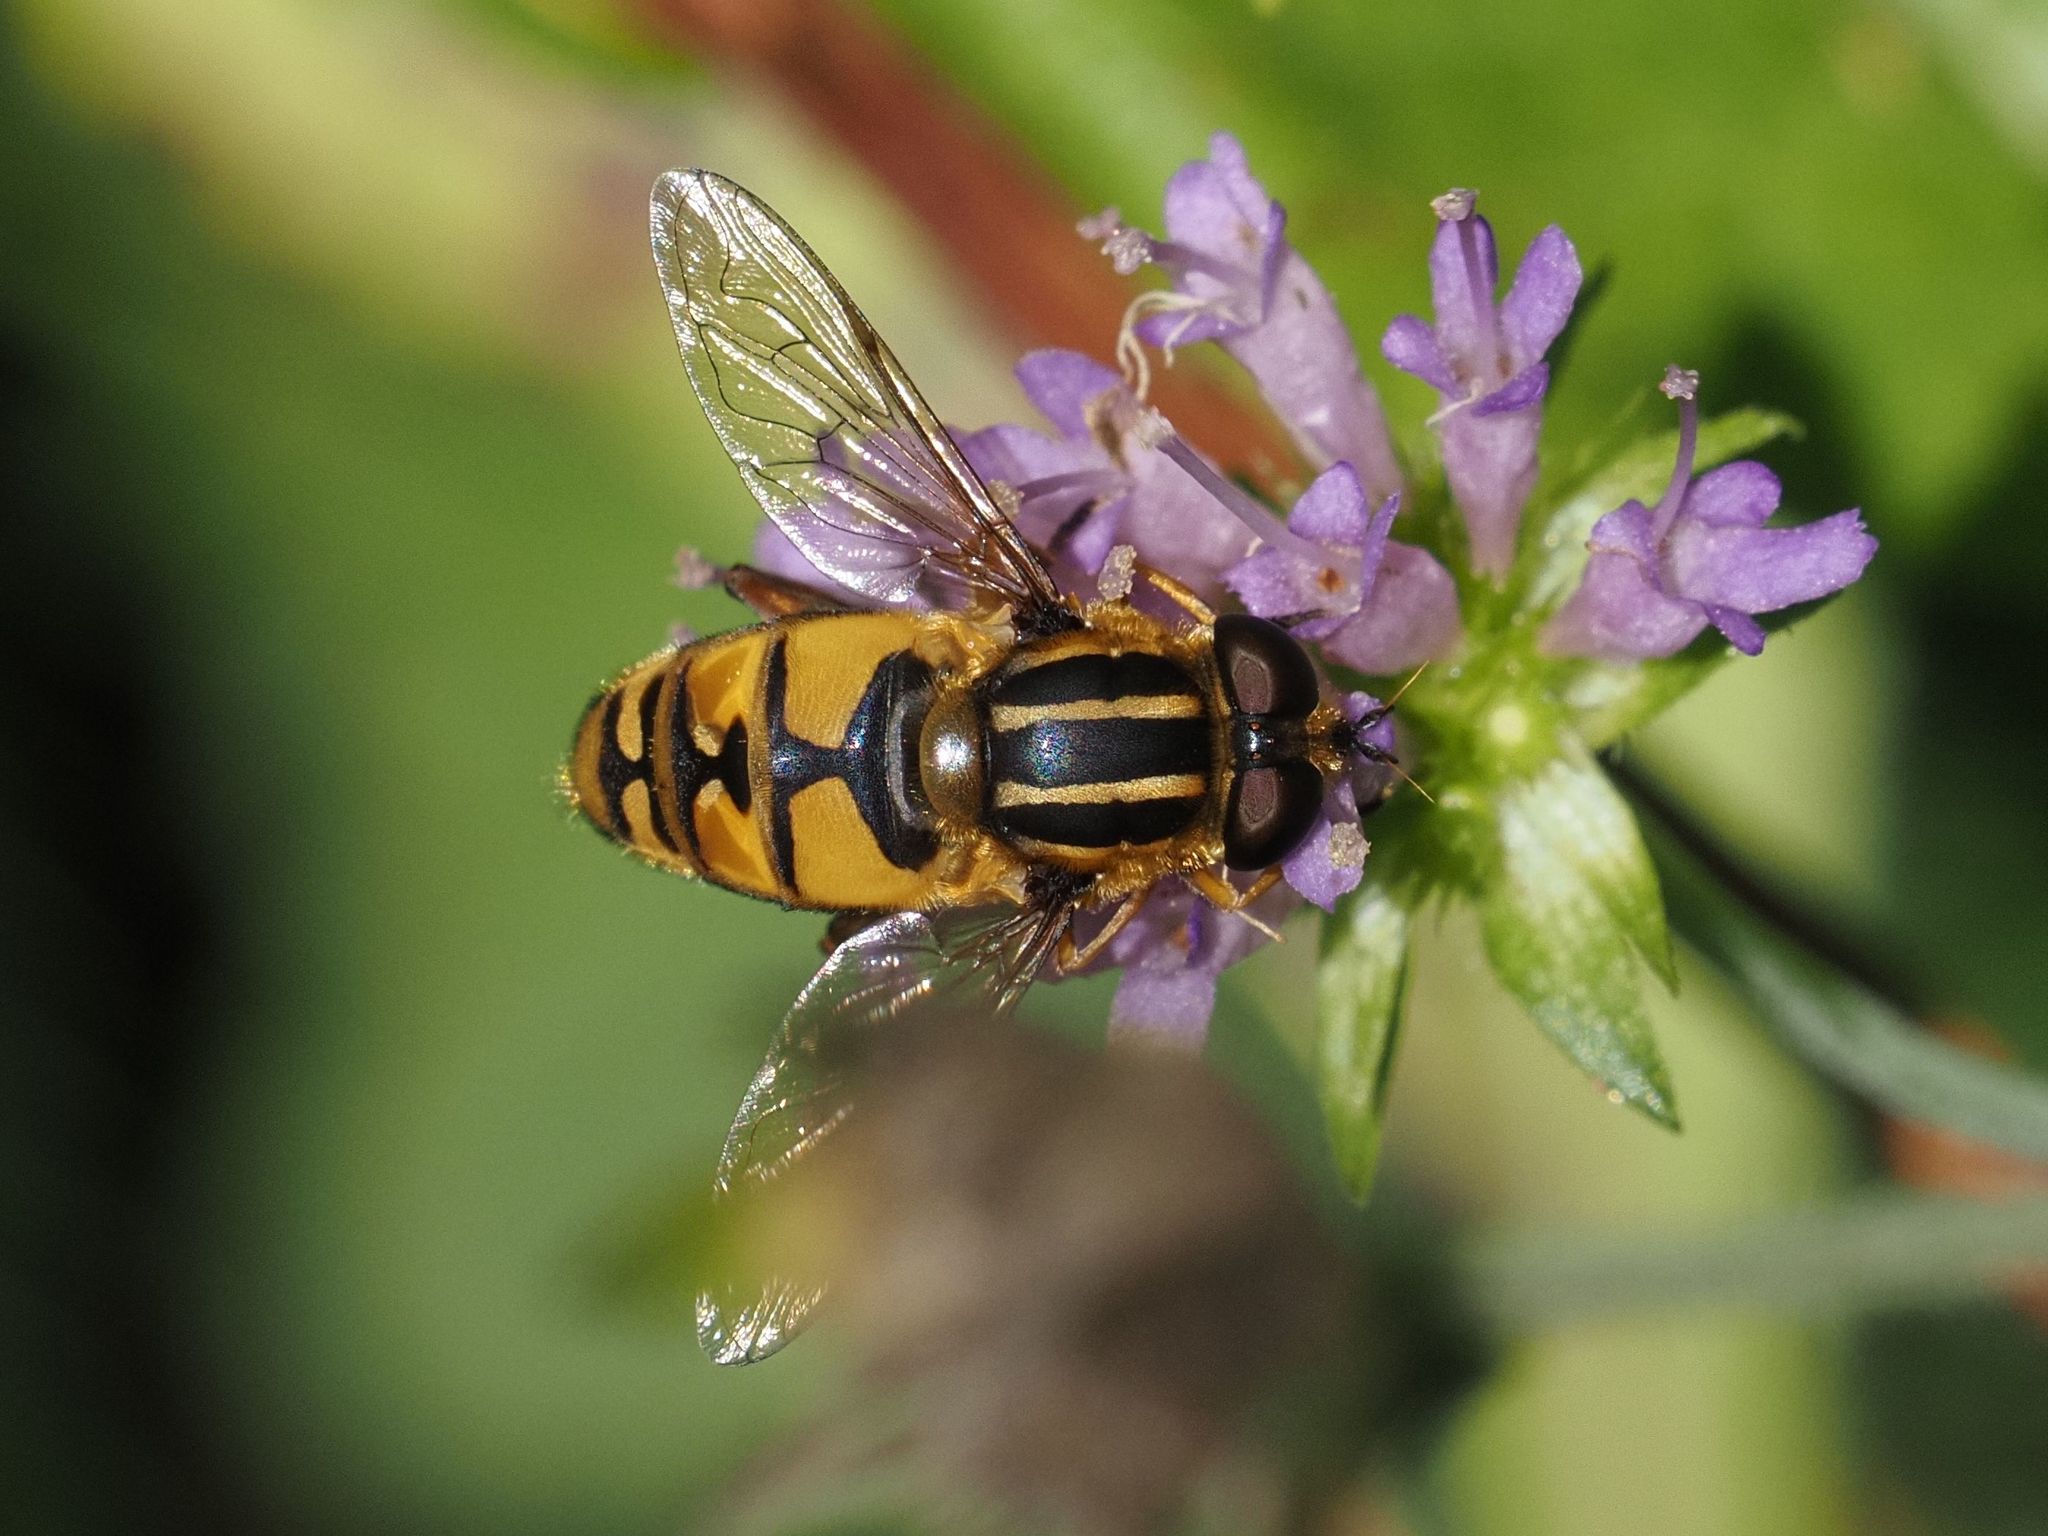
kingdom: Animalia
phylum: Arthropoda
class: Insecta
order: Diptera
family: Syrphidae
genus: Helophilus
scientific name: Helophilus pendulus
